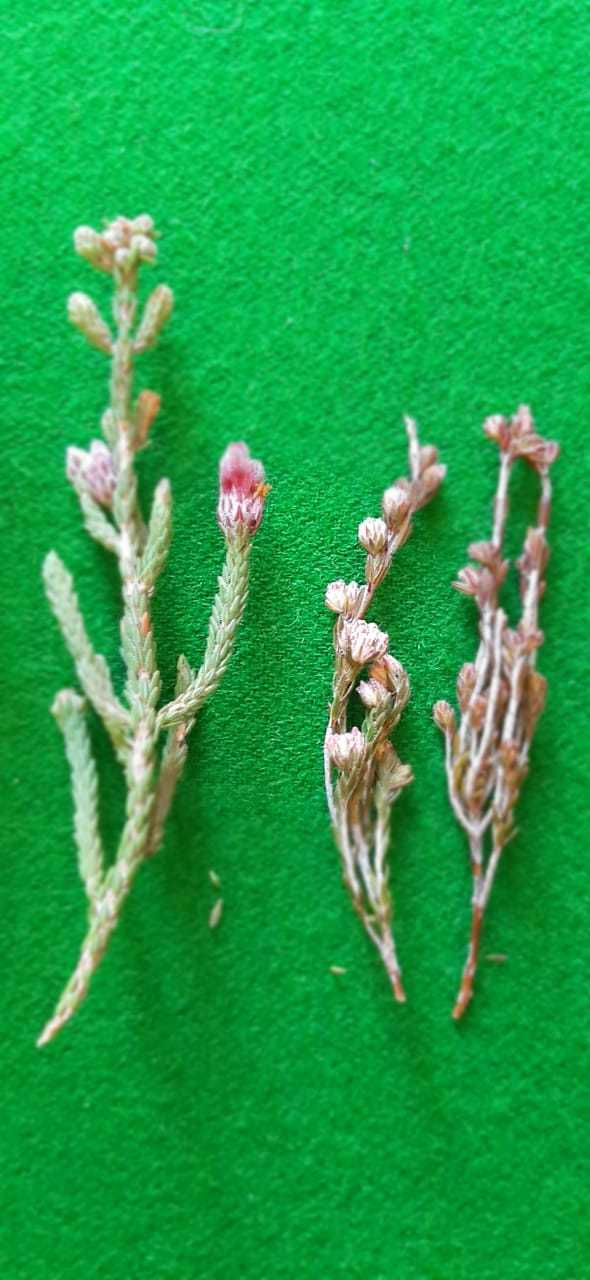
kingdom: Plantae
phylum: Tracheophyta
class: Magnoliopsida
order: Ericales
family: Ericaceae
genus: Erica
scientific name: Erica strigilifolia
